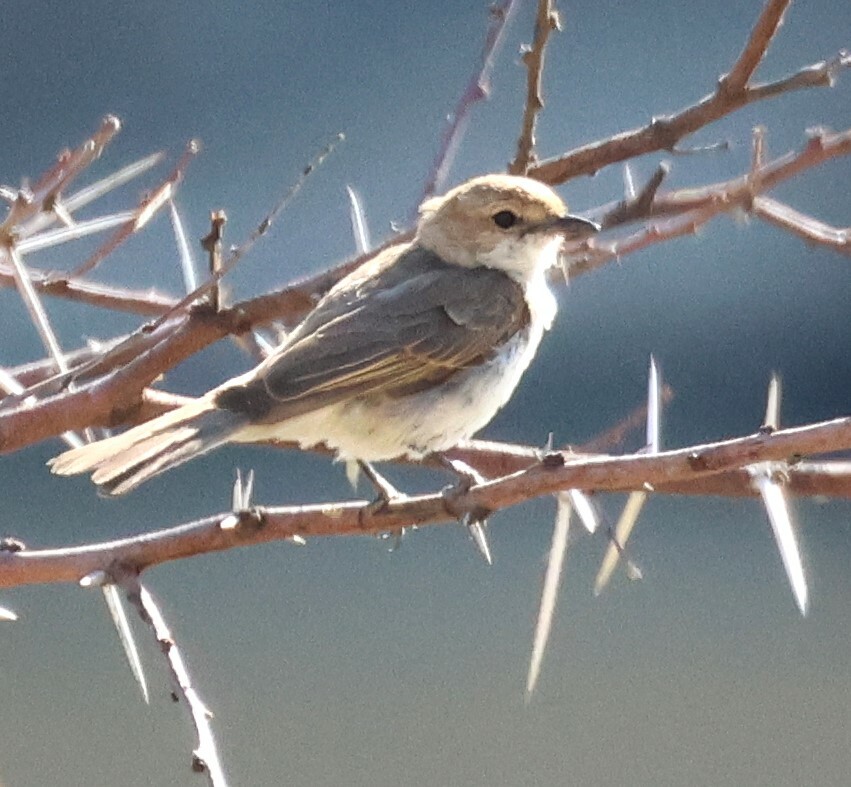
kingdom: Animalia
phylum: Chordata
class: Aves
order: Passeriformes
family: Muscicapidae
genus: Bradornis
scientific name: Bradornis mariquensis
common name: Marico flycatcher
